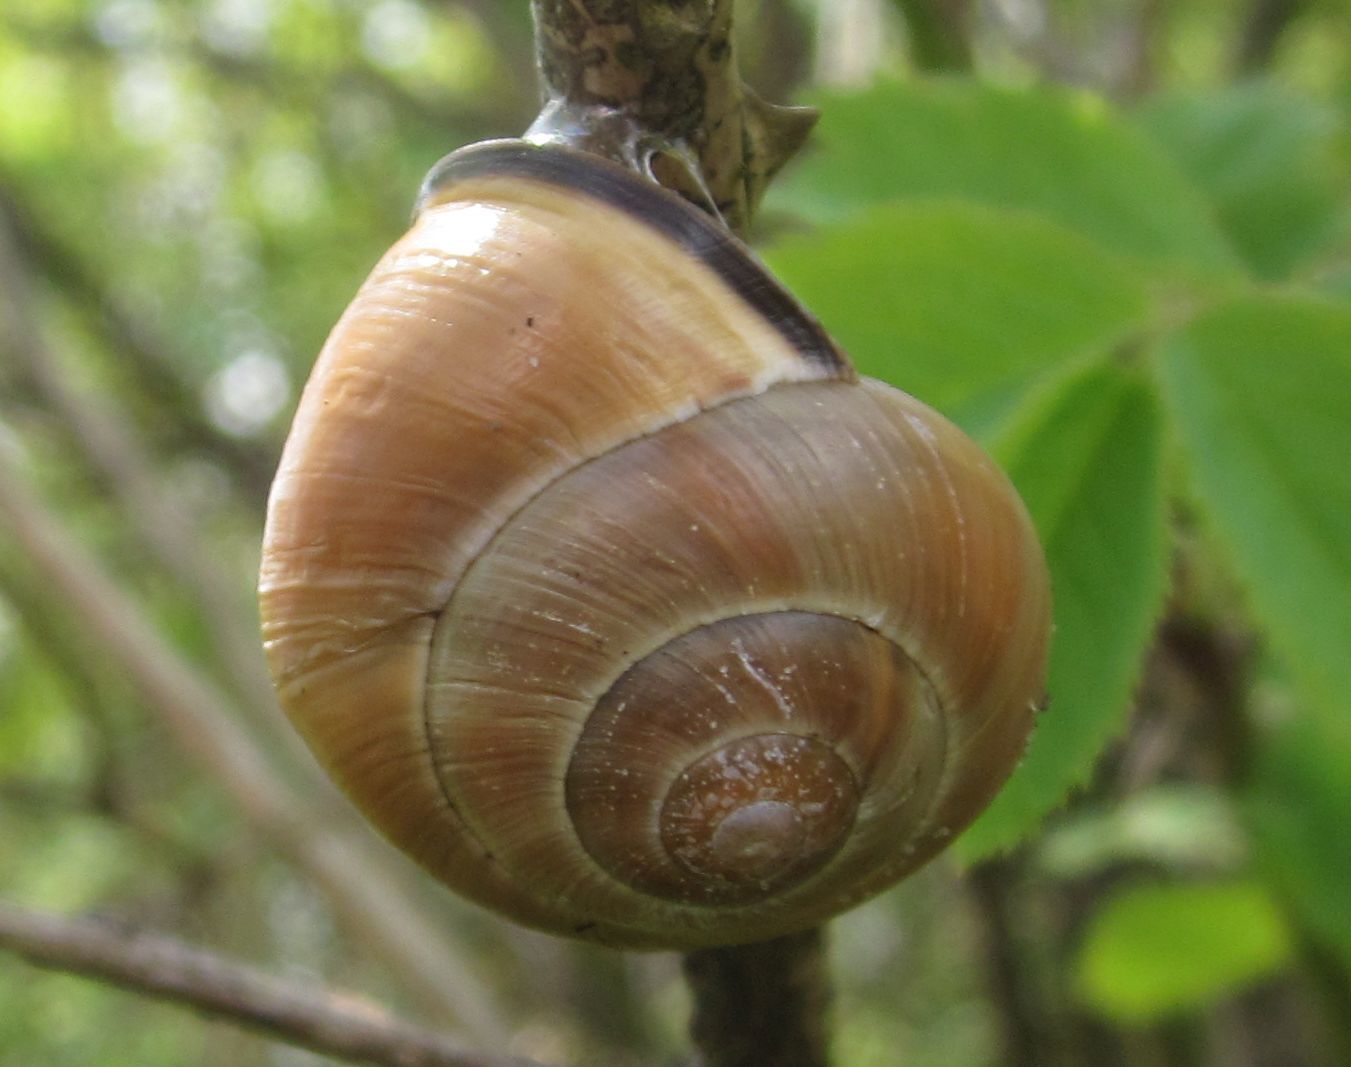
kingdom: Animalia
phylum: Mollusca
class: Gastropoda
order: Stylommatophora
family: Helicidae
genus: Cepaea
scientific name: Cepaea nemoralis
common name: Grovesnail
